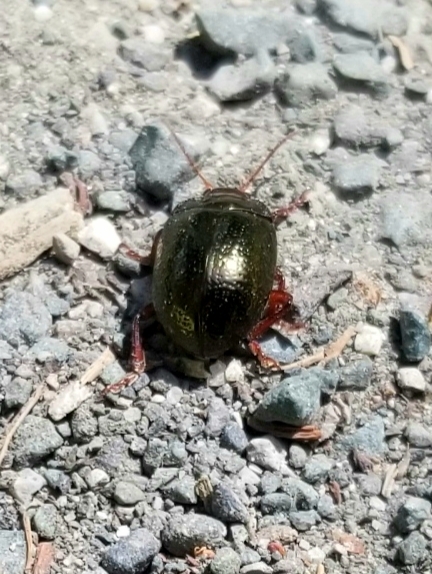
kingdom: Animalia
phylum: Arthropoda
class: Insecta
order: Coleoptera
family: Chrysomelidae
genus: Chrysolina
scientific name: Chrysolina bankii
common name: Leaf beetle
